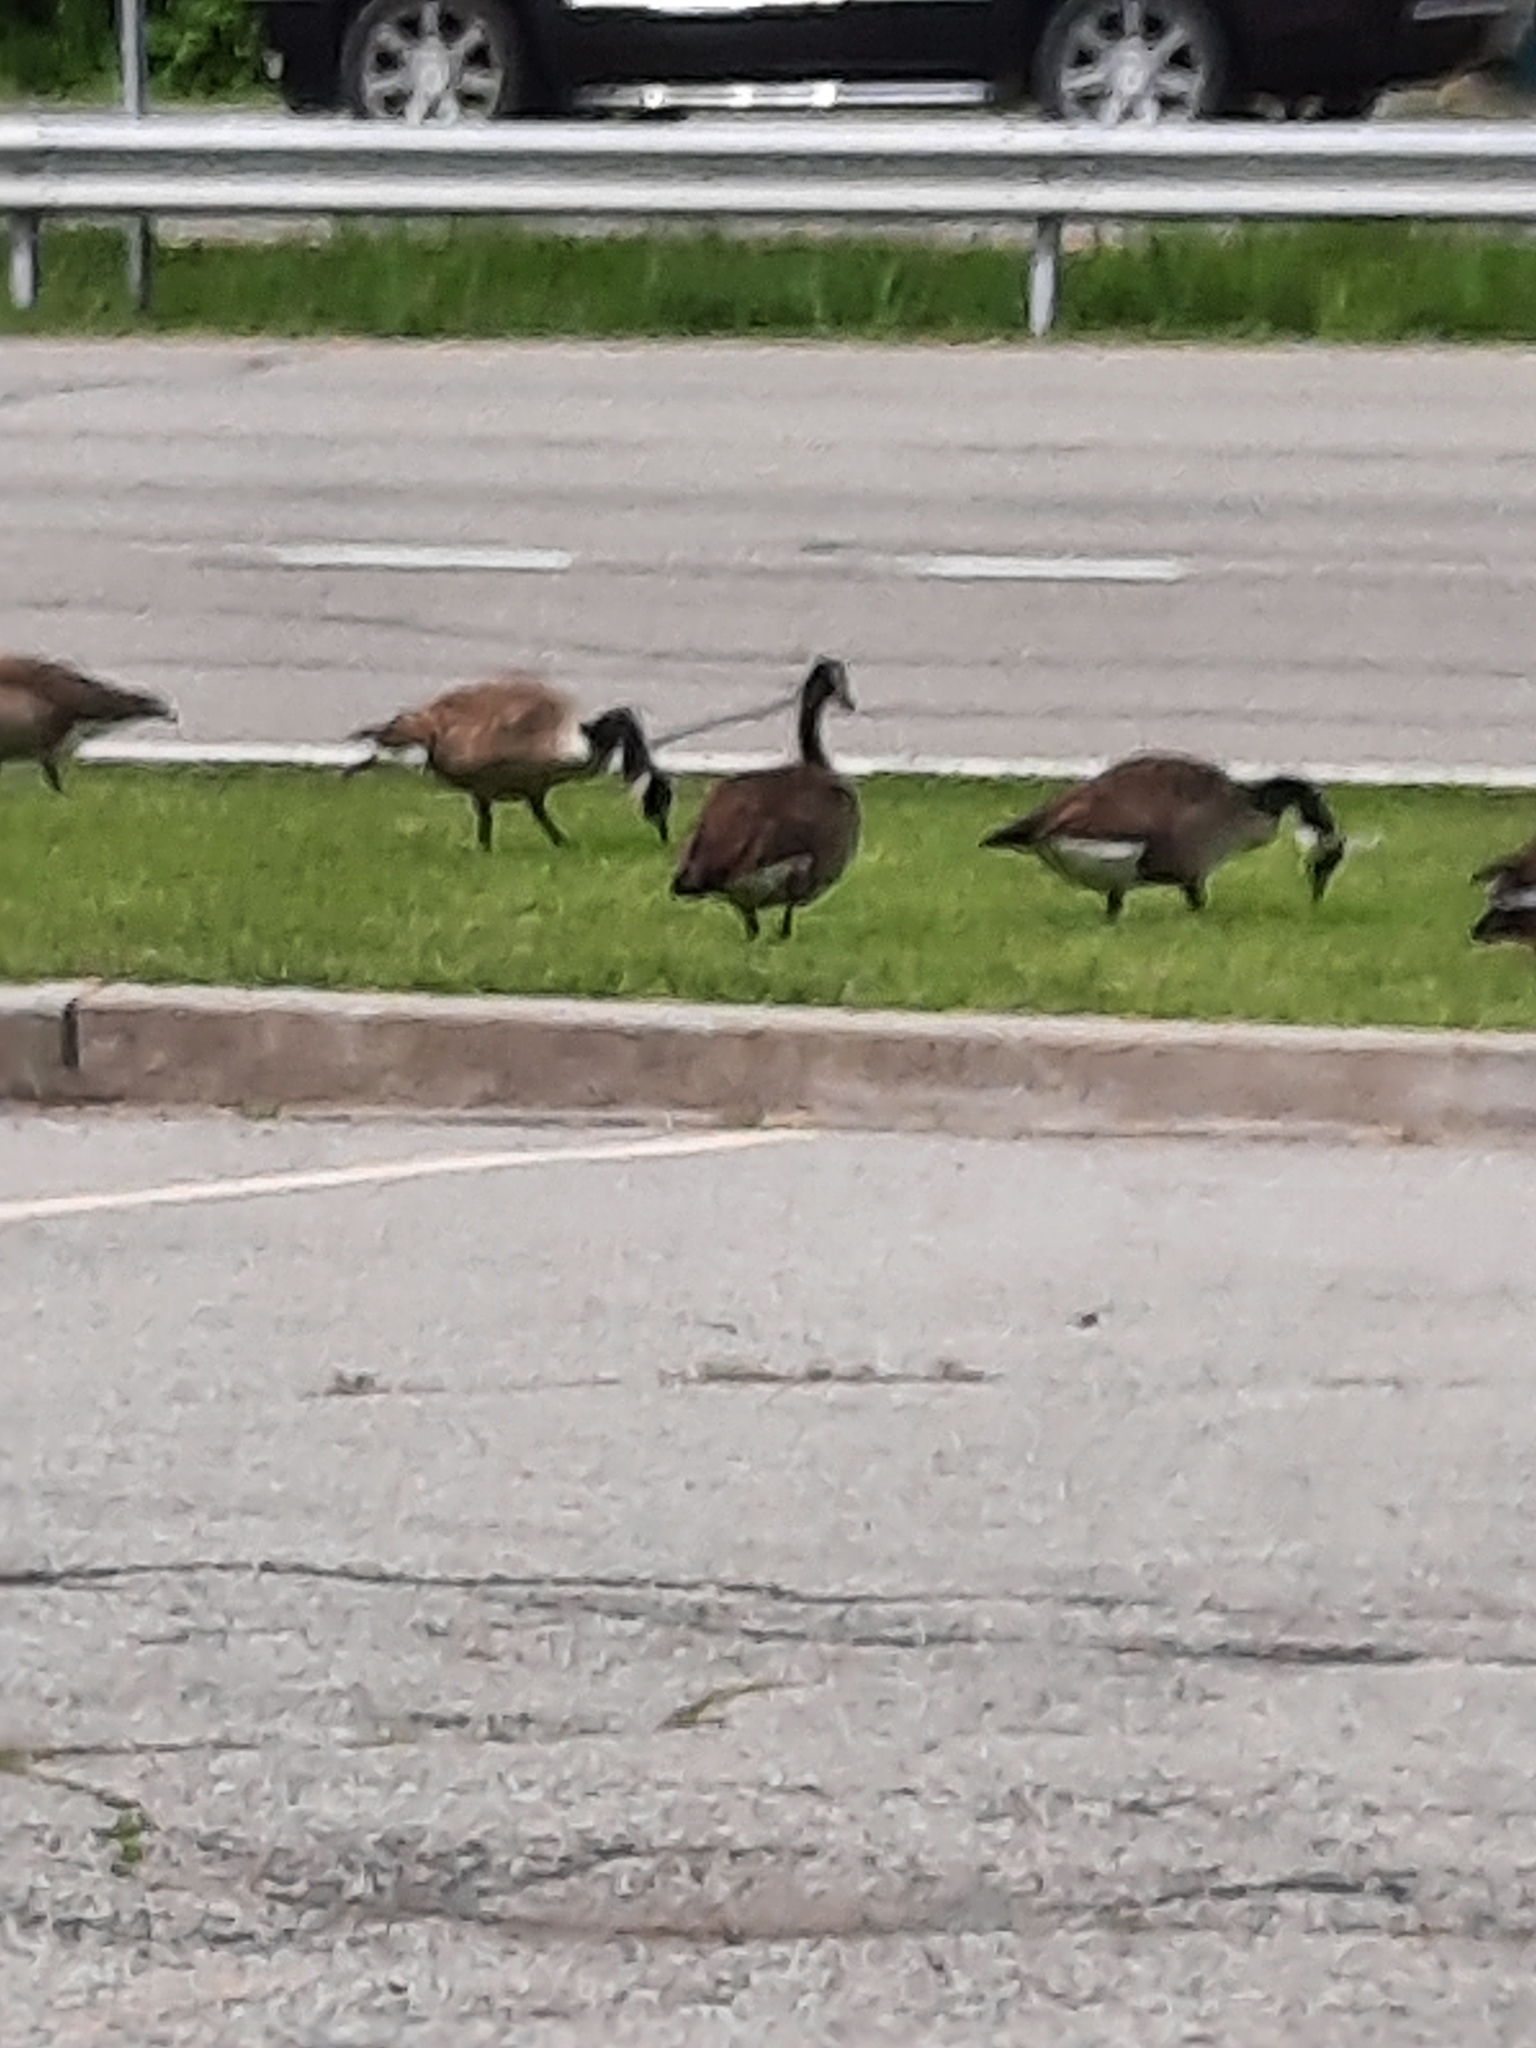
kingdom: Animalia
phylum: Chordata
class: Aves
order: Anseriformes
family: Anatidae
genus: Branta
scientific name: Branta canadensis
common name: Canada goose
